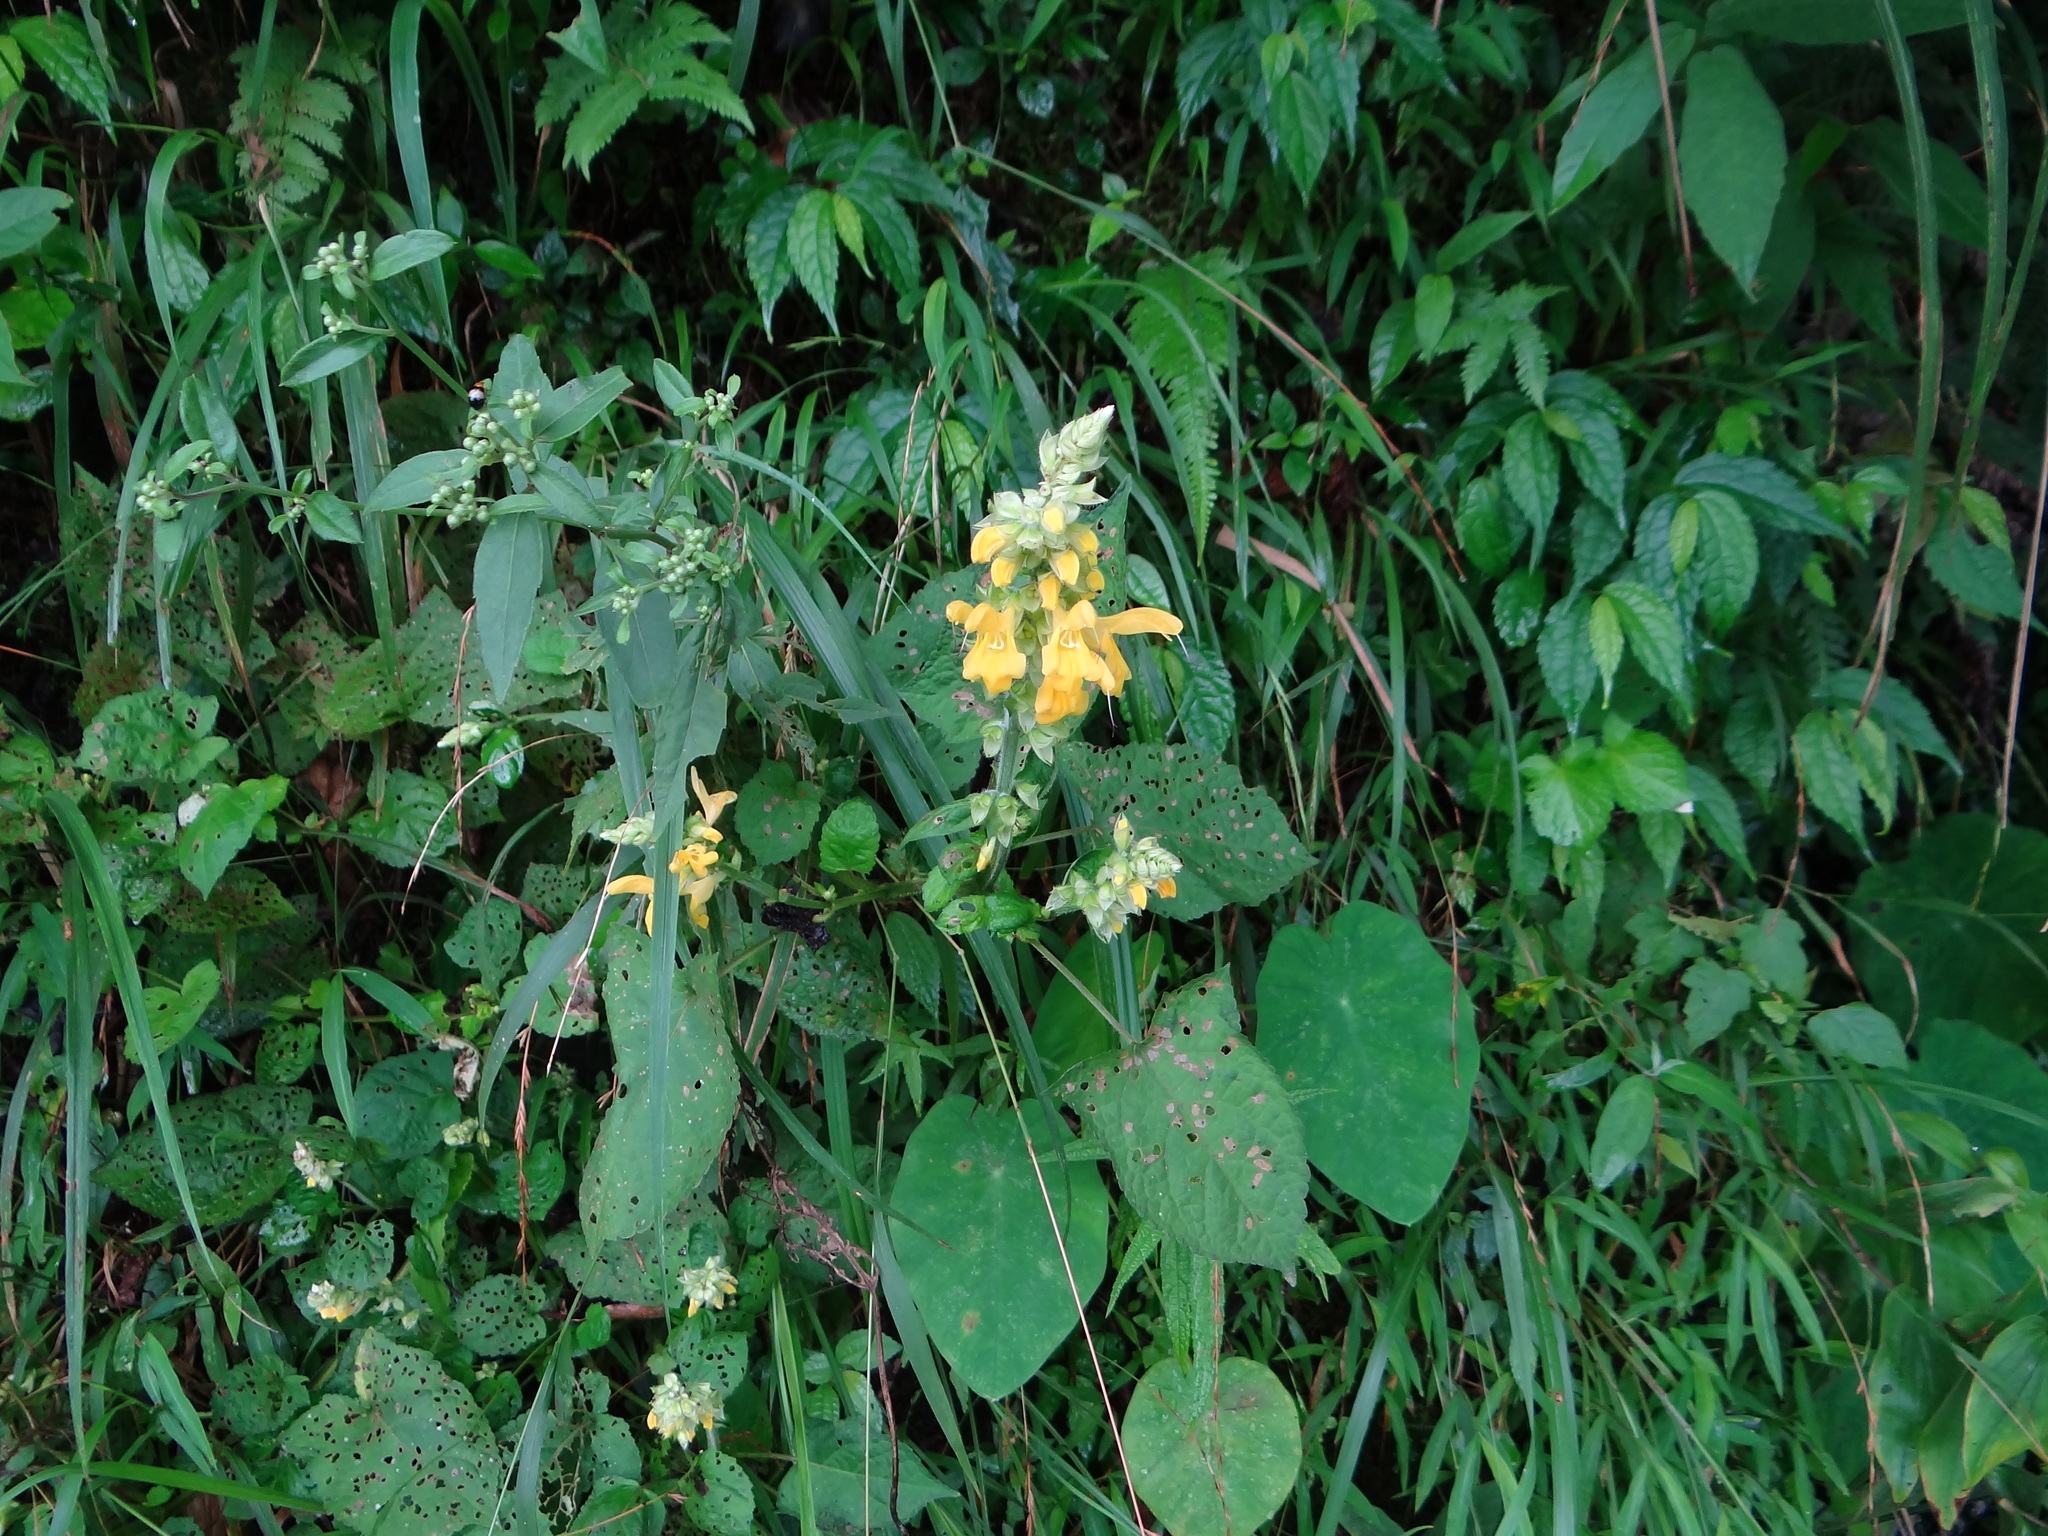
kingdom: Plantae
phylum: Tracheophyta
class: Magnoliopsida
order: Lamiales
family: Lamiaceae
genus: Salvia
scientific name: Salvia japonica
